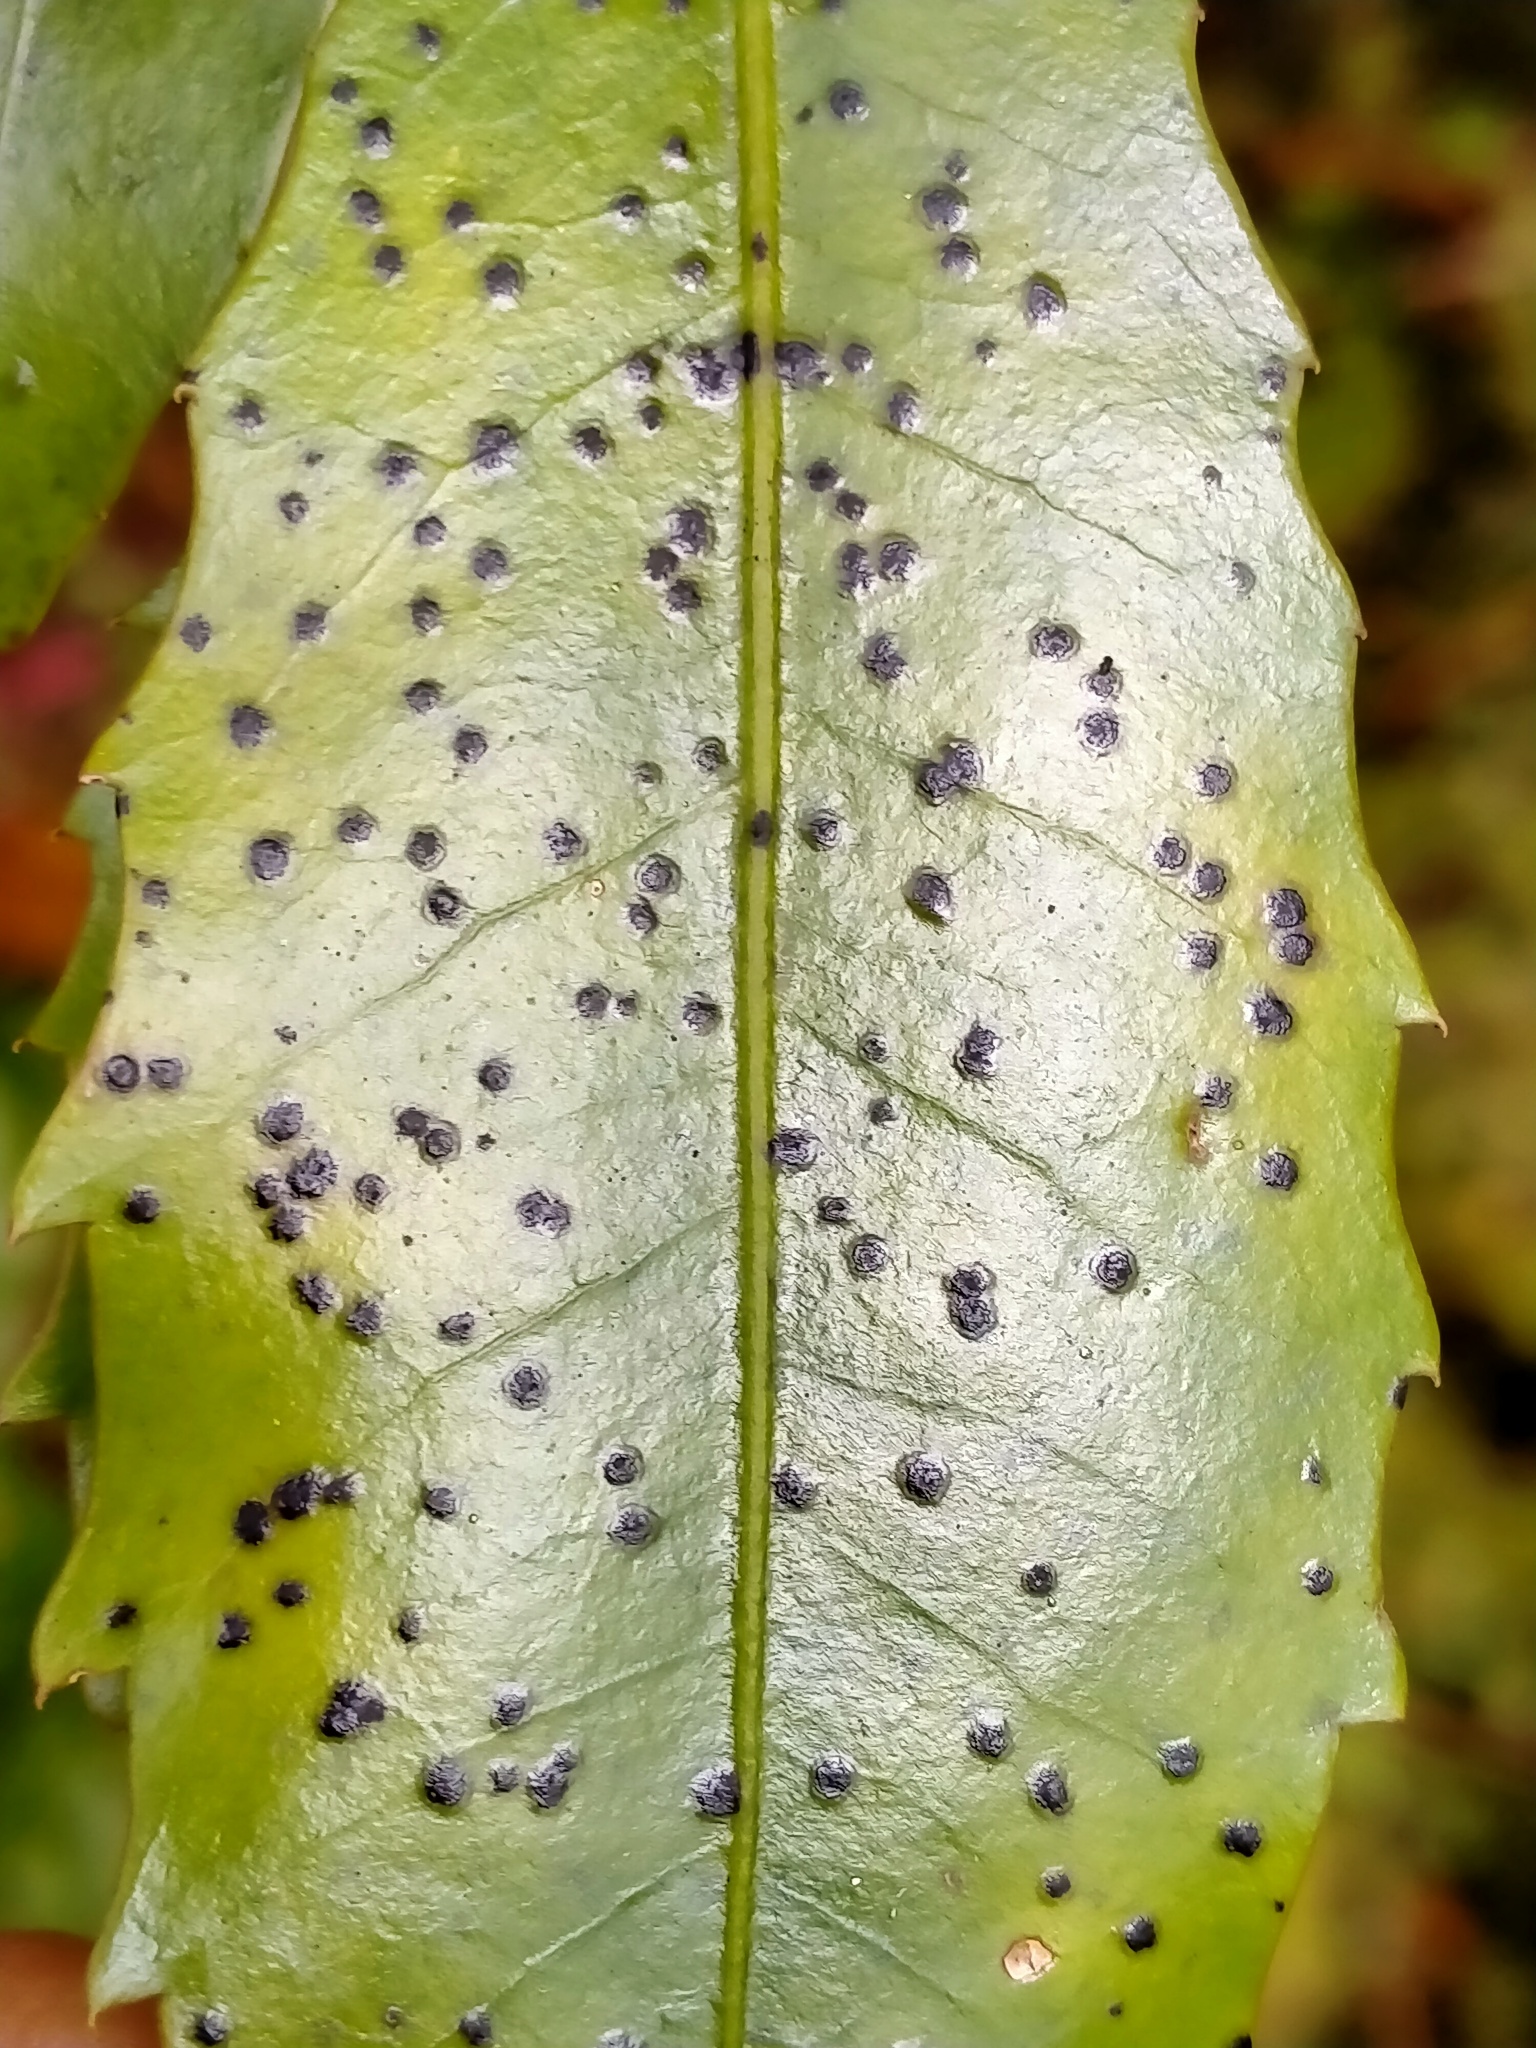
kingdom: Fungi
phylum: Ascomycota
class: Dothideomycetes
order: Asterinales
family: Asterinaceae
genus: Placosoma
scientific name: Placosoma nothopanacis
